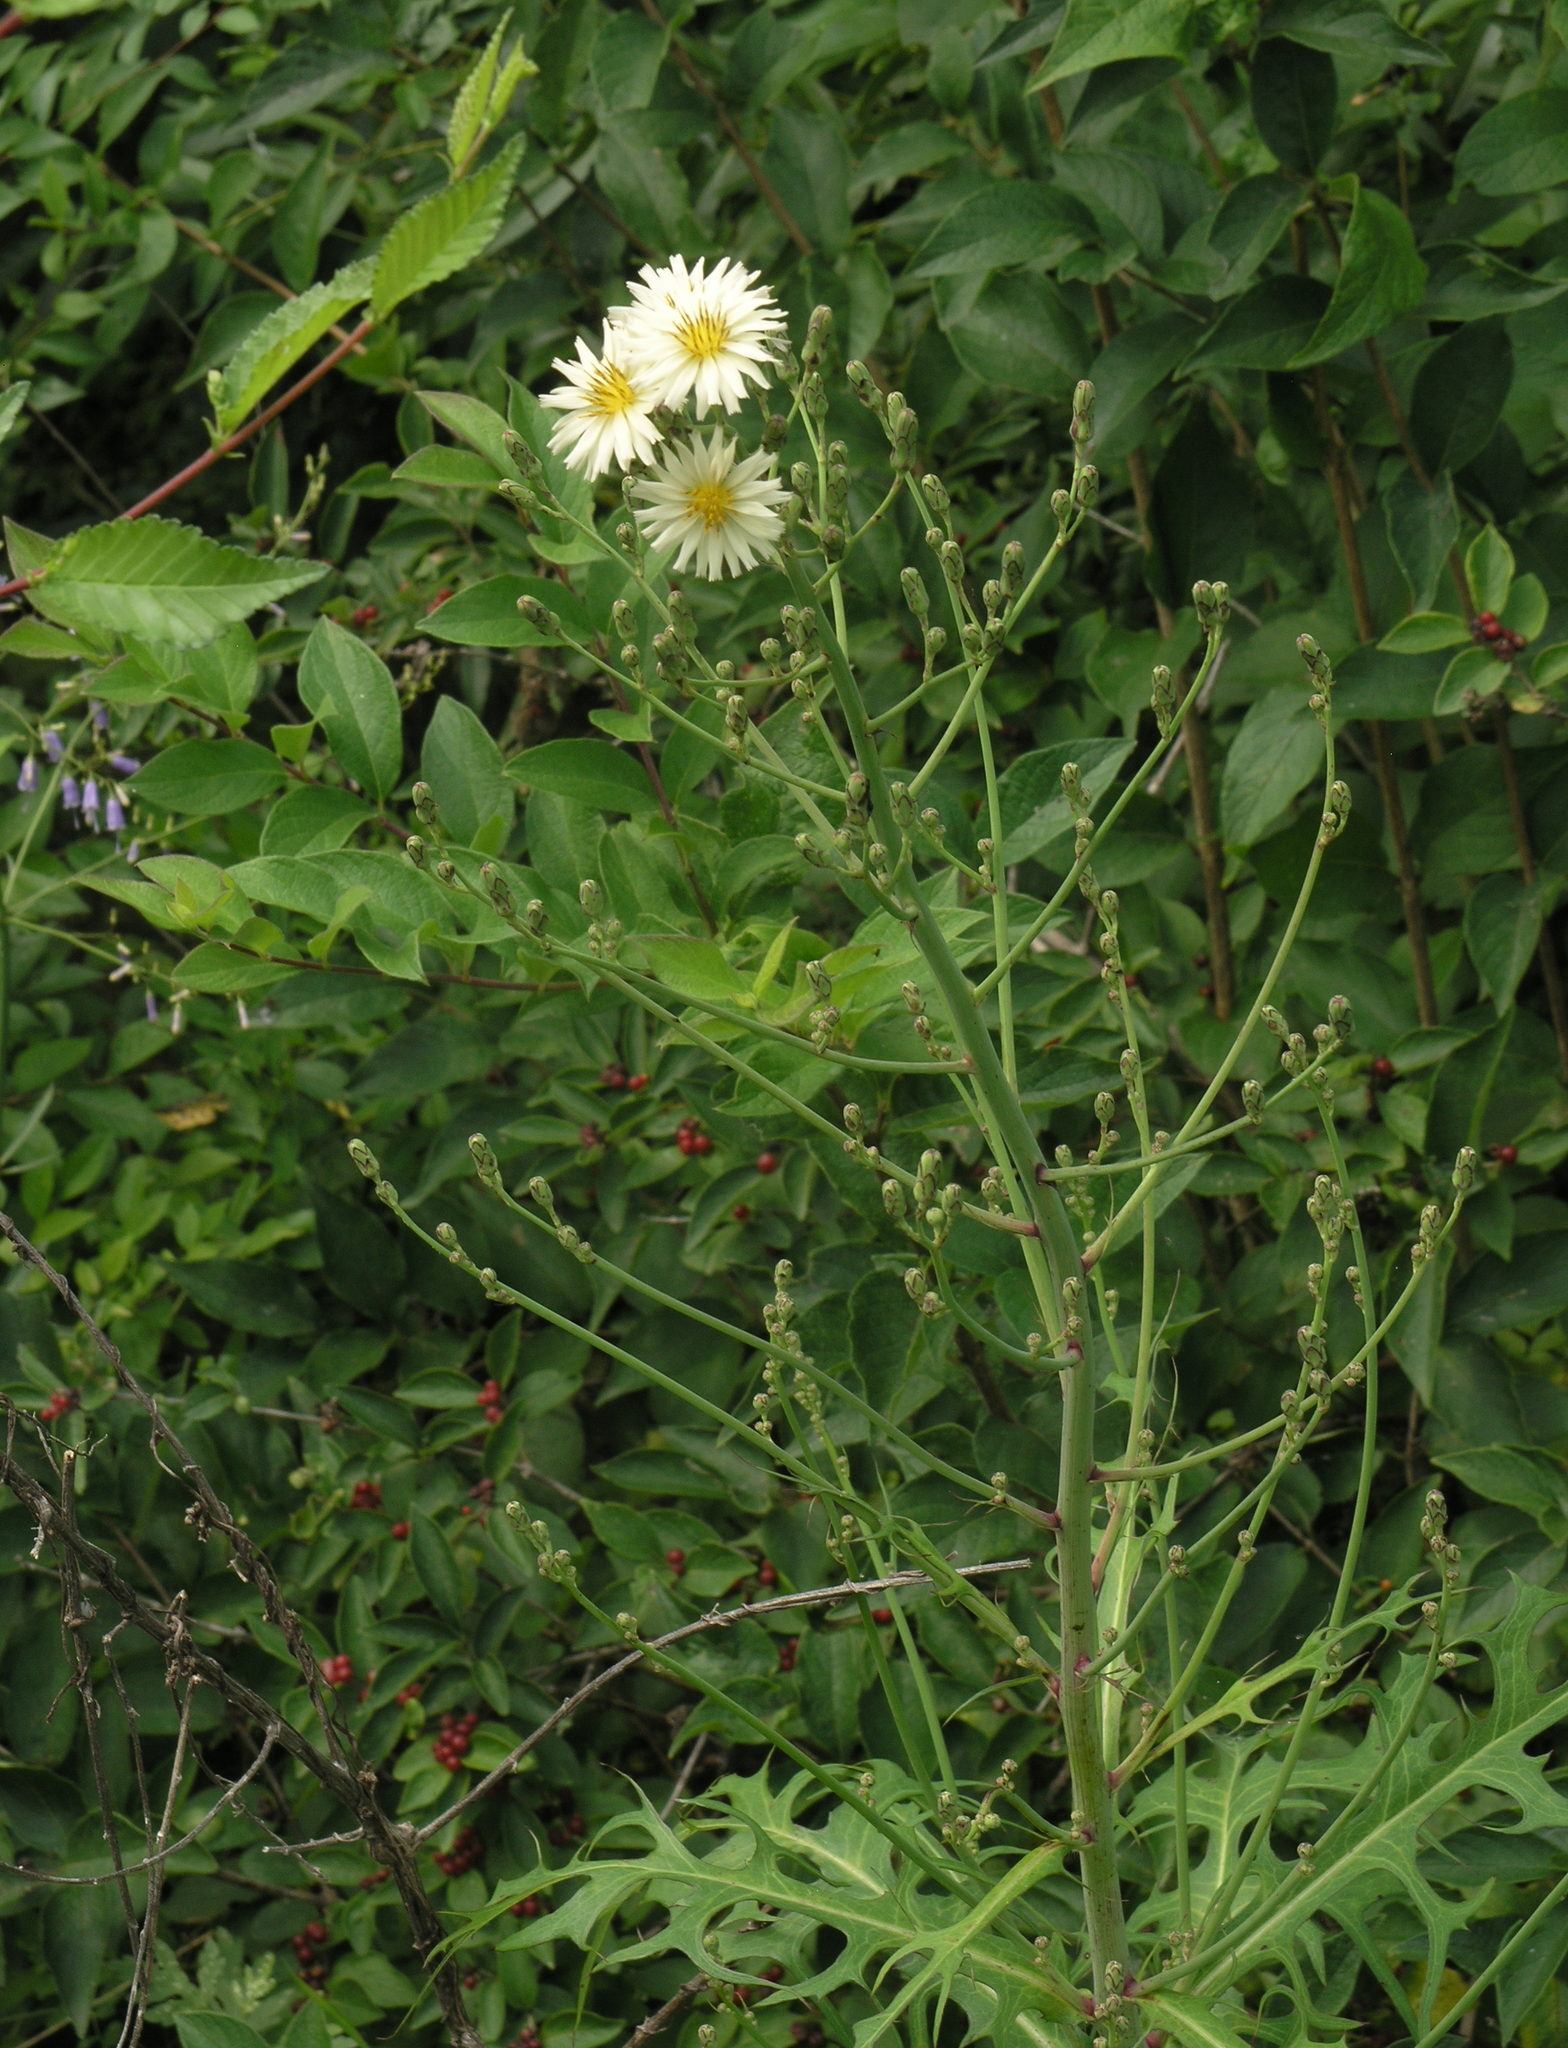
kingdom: Plantae
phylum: Tracheophyta
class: Magnoliopsida
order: Asterales
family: Asteraceae
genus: Lactuca
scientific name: Lactuca indica
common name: Wild lettuce
